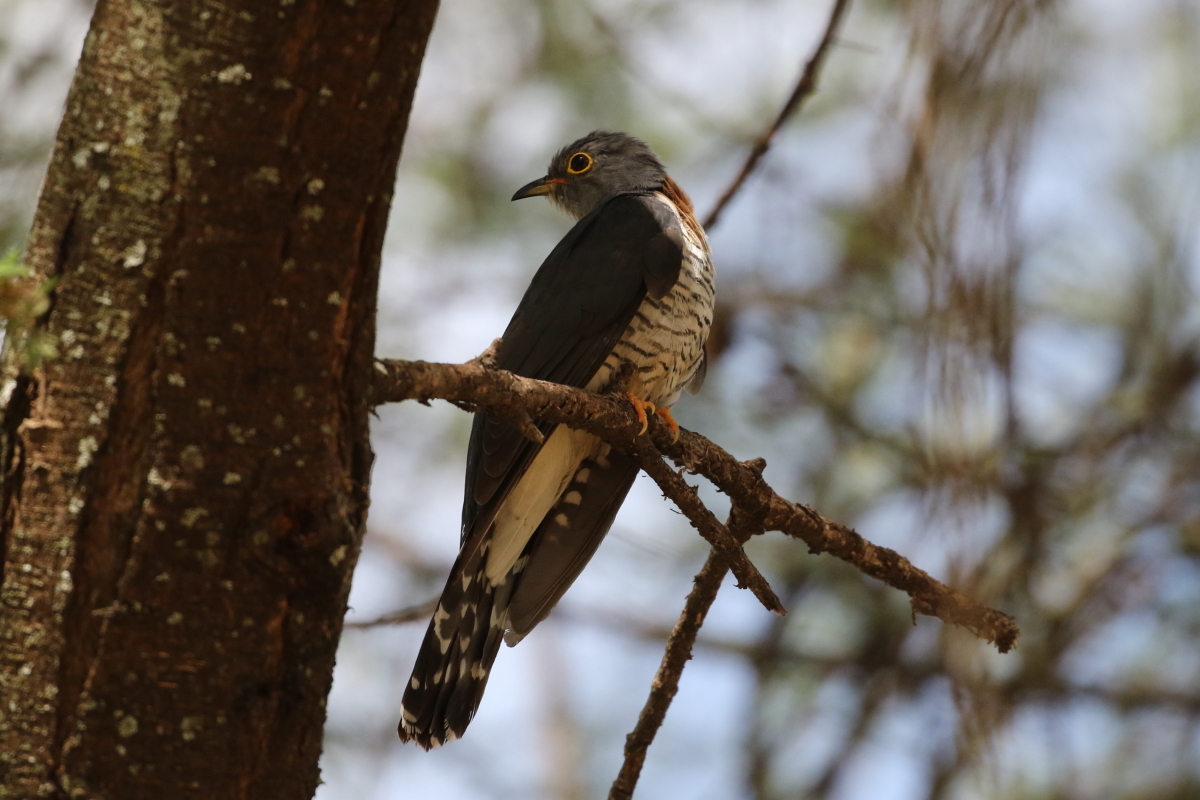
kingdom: Animalia
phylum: Chordata
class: Aves
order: Cuculiformes
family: Cuculidae
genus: Cuculus
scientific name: Cuculus solitarius
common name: Red-chested cuckoo
